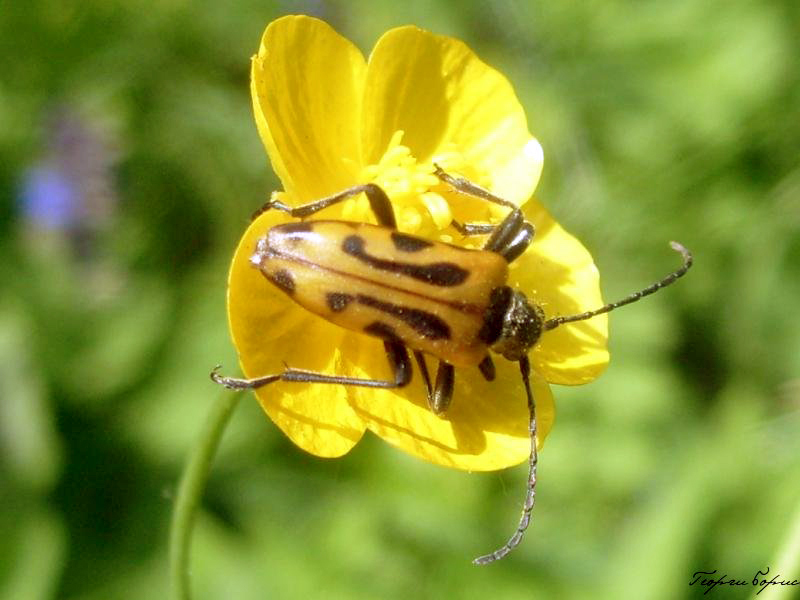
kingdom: Animalia
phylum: Arthropoda
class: Insecta
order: Coleoptera
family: Cerambycidae
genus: Brachyta
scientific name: Brachyta interrogationis
